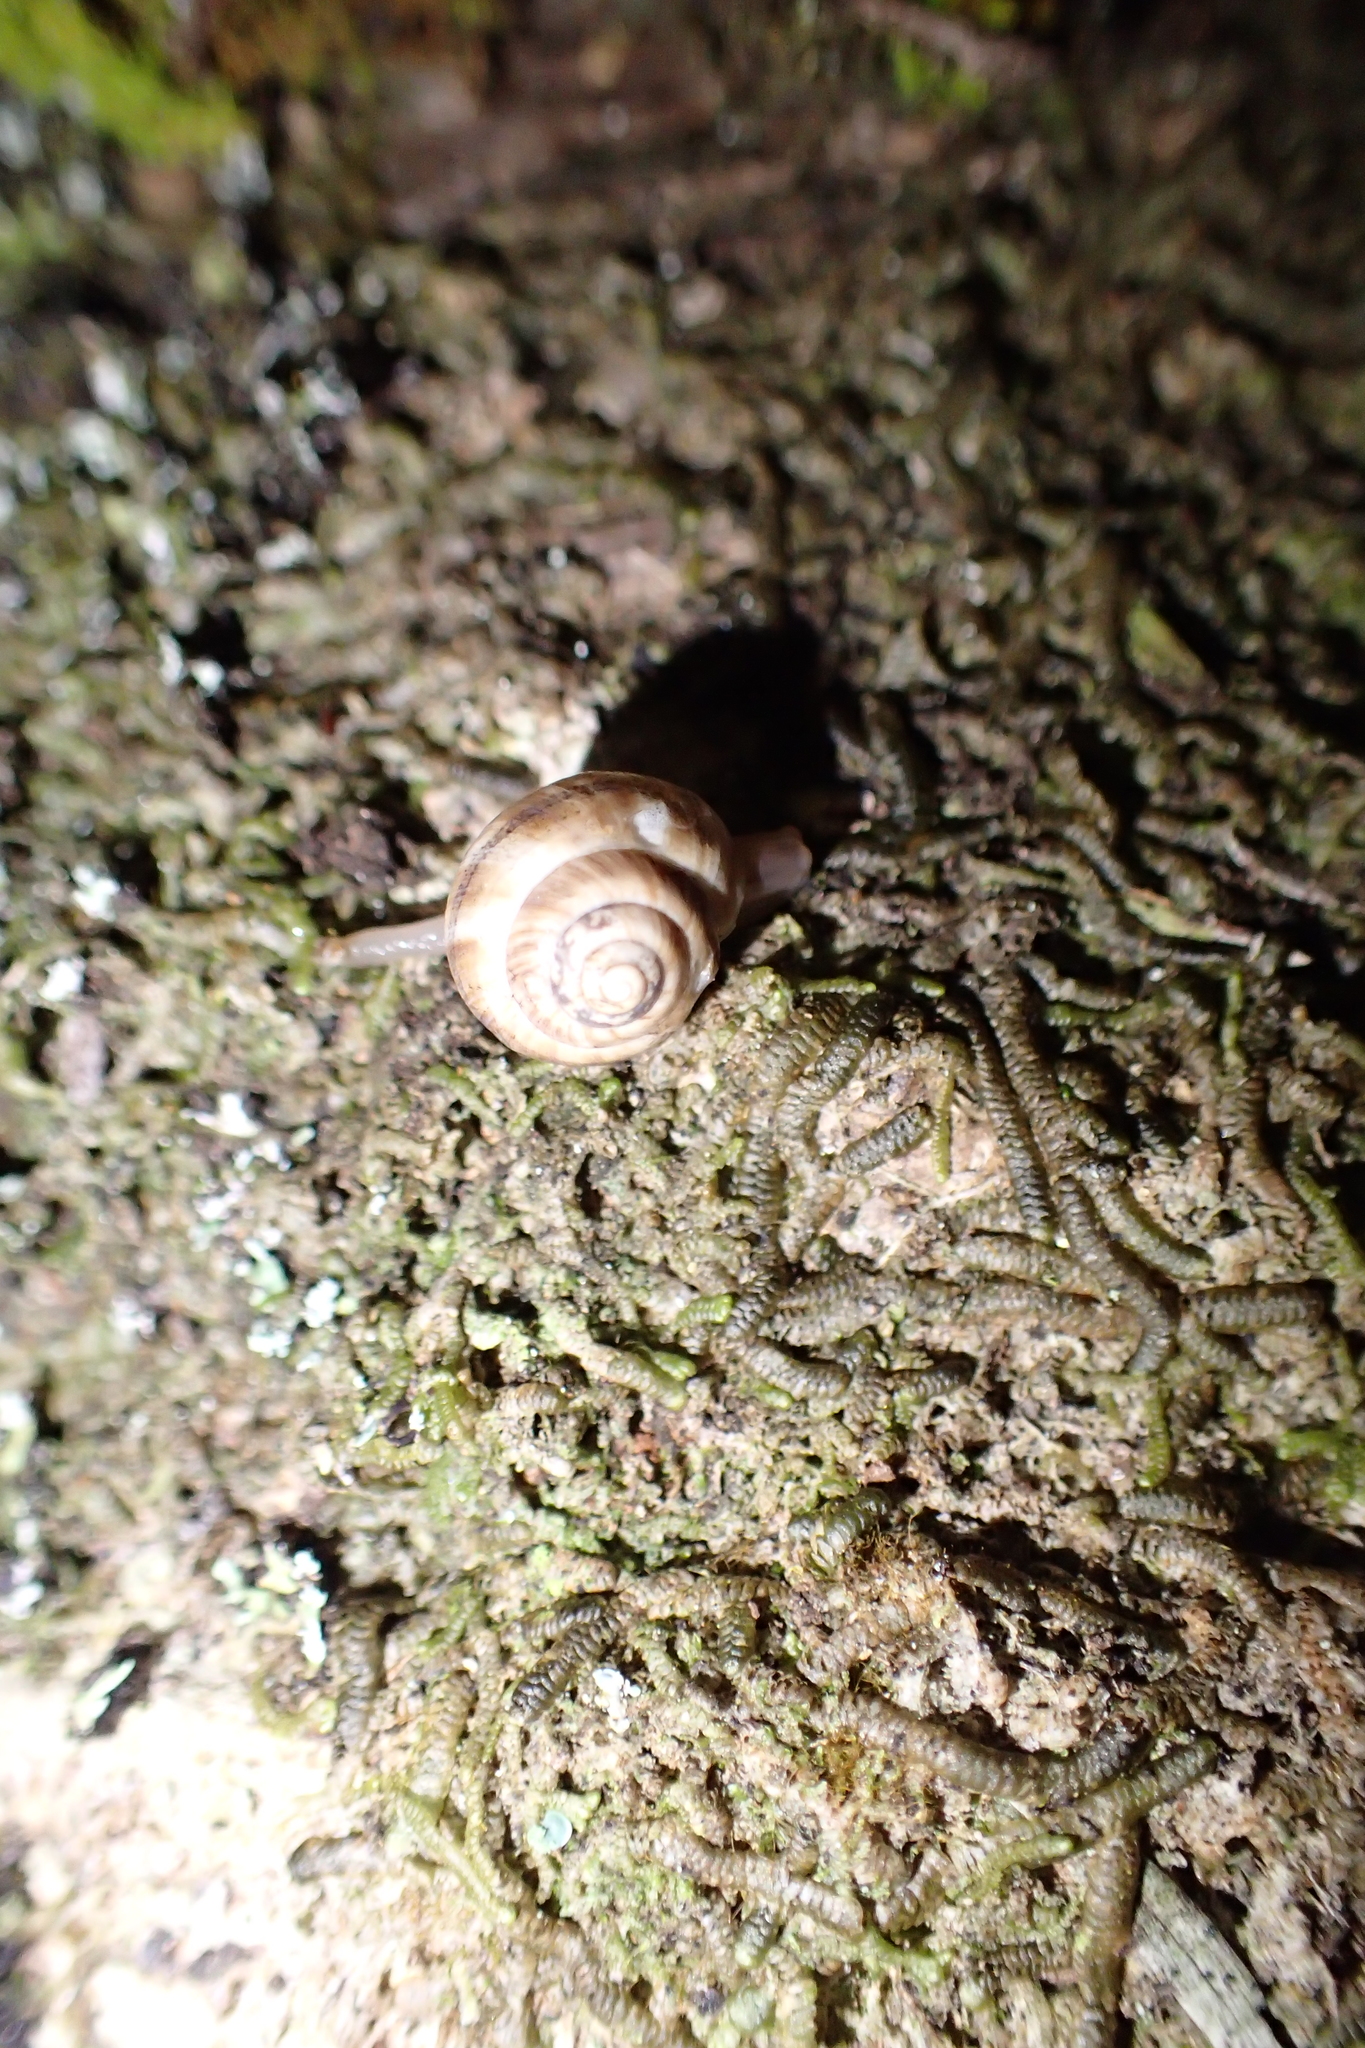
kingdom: Animalia
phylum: Mollusca
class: Gastropoda
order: Stylommatophora
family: Charopidae
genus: Serpho
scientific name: Serpho
